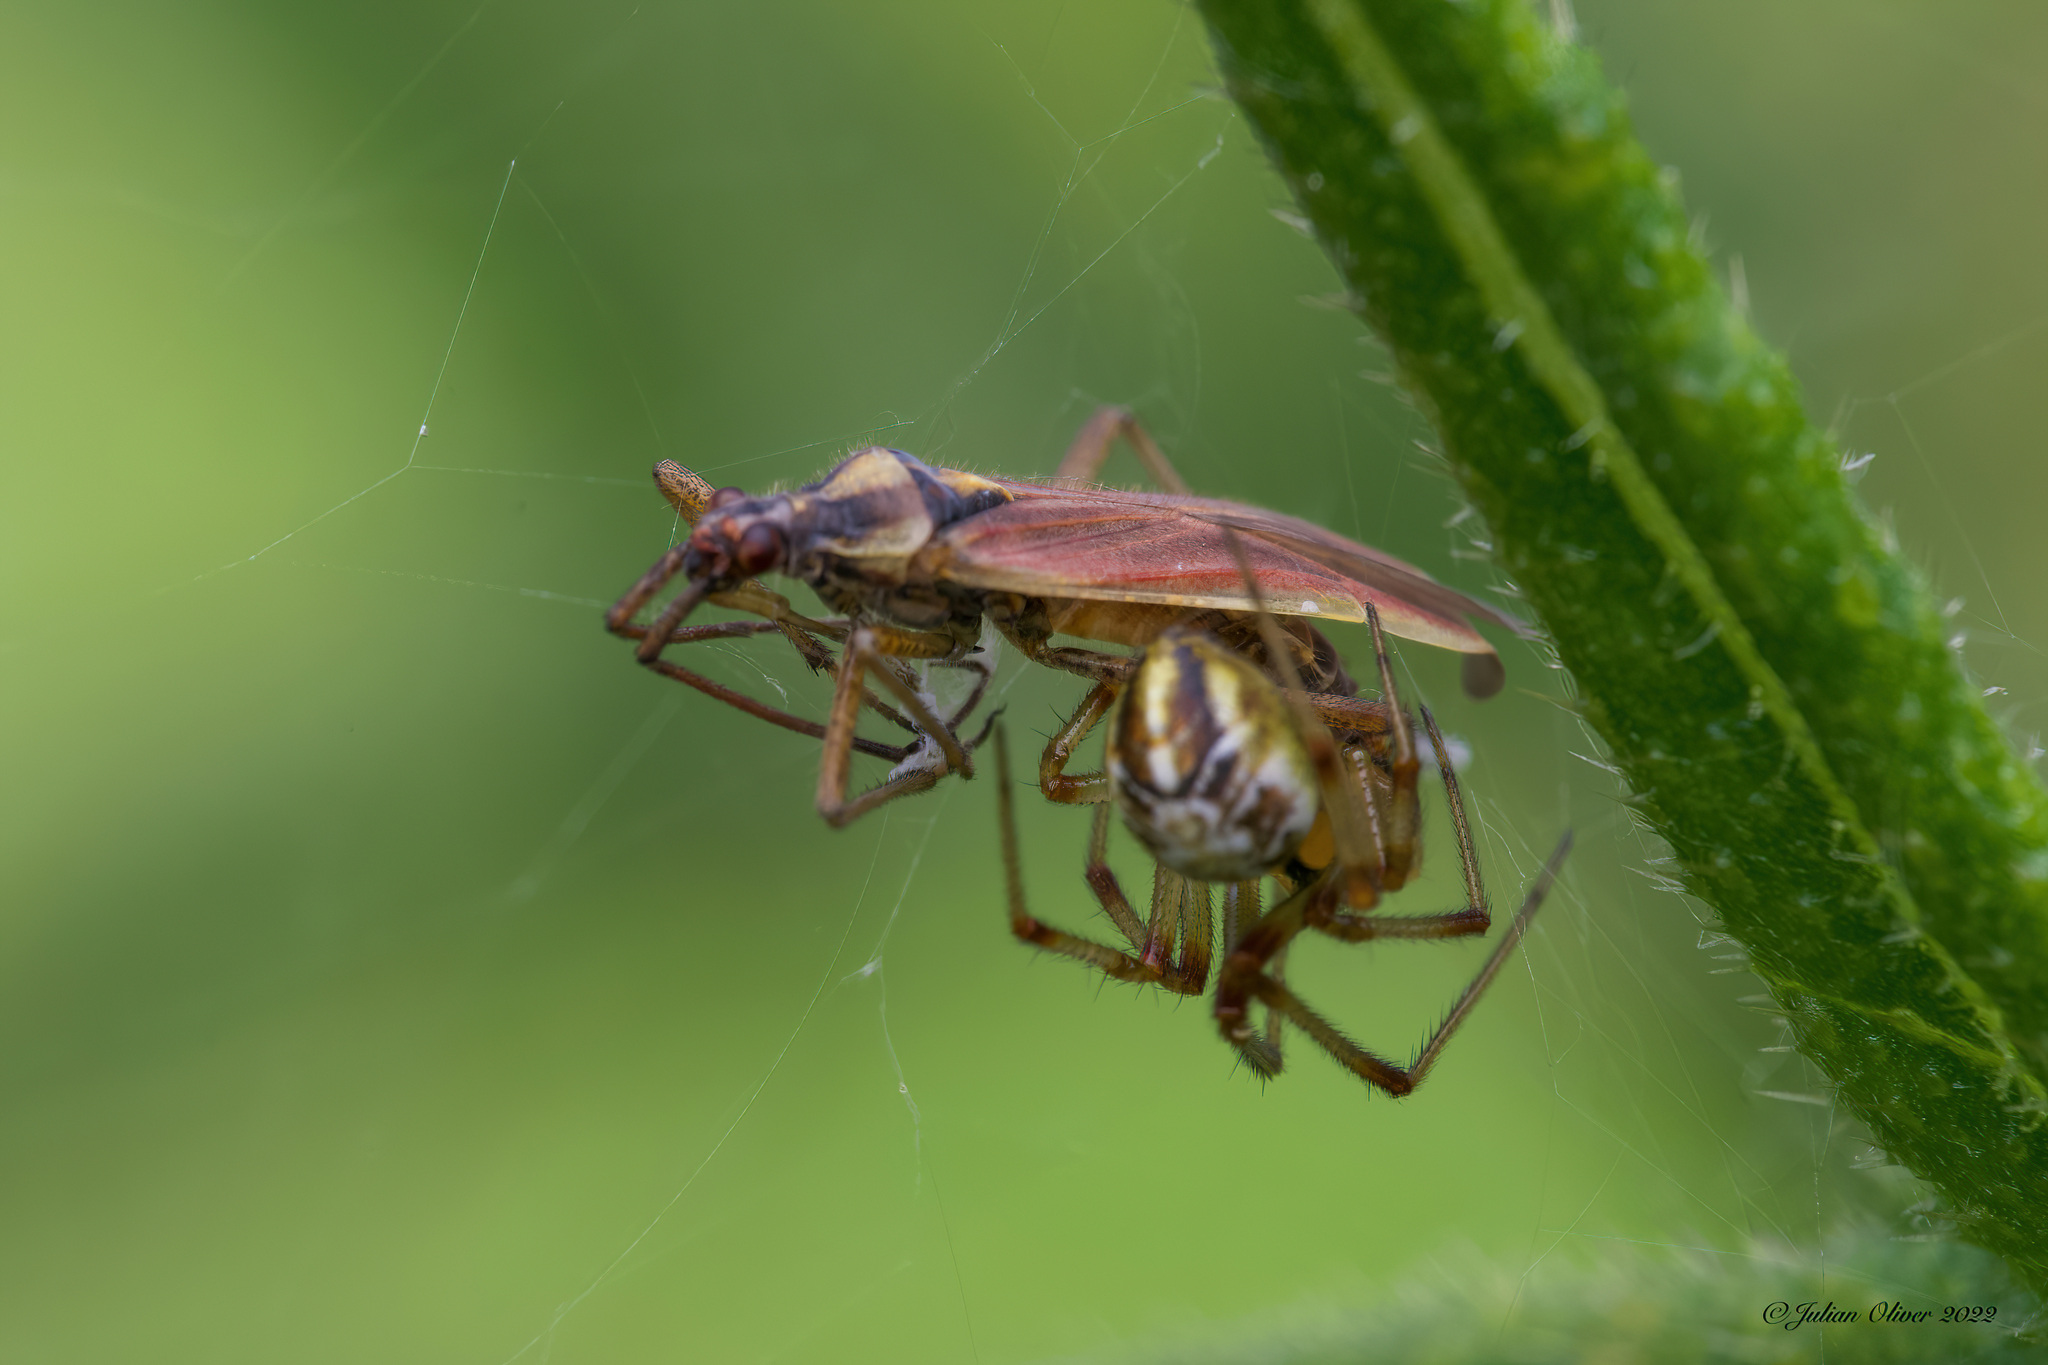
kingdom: Animalia
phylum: Arthropoda
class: Insecta
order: Hemiptera
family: Miridae
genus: Leptopterna
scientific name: Leptopterna ferrugata
